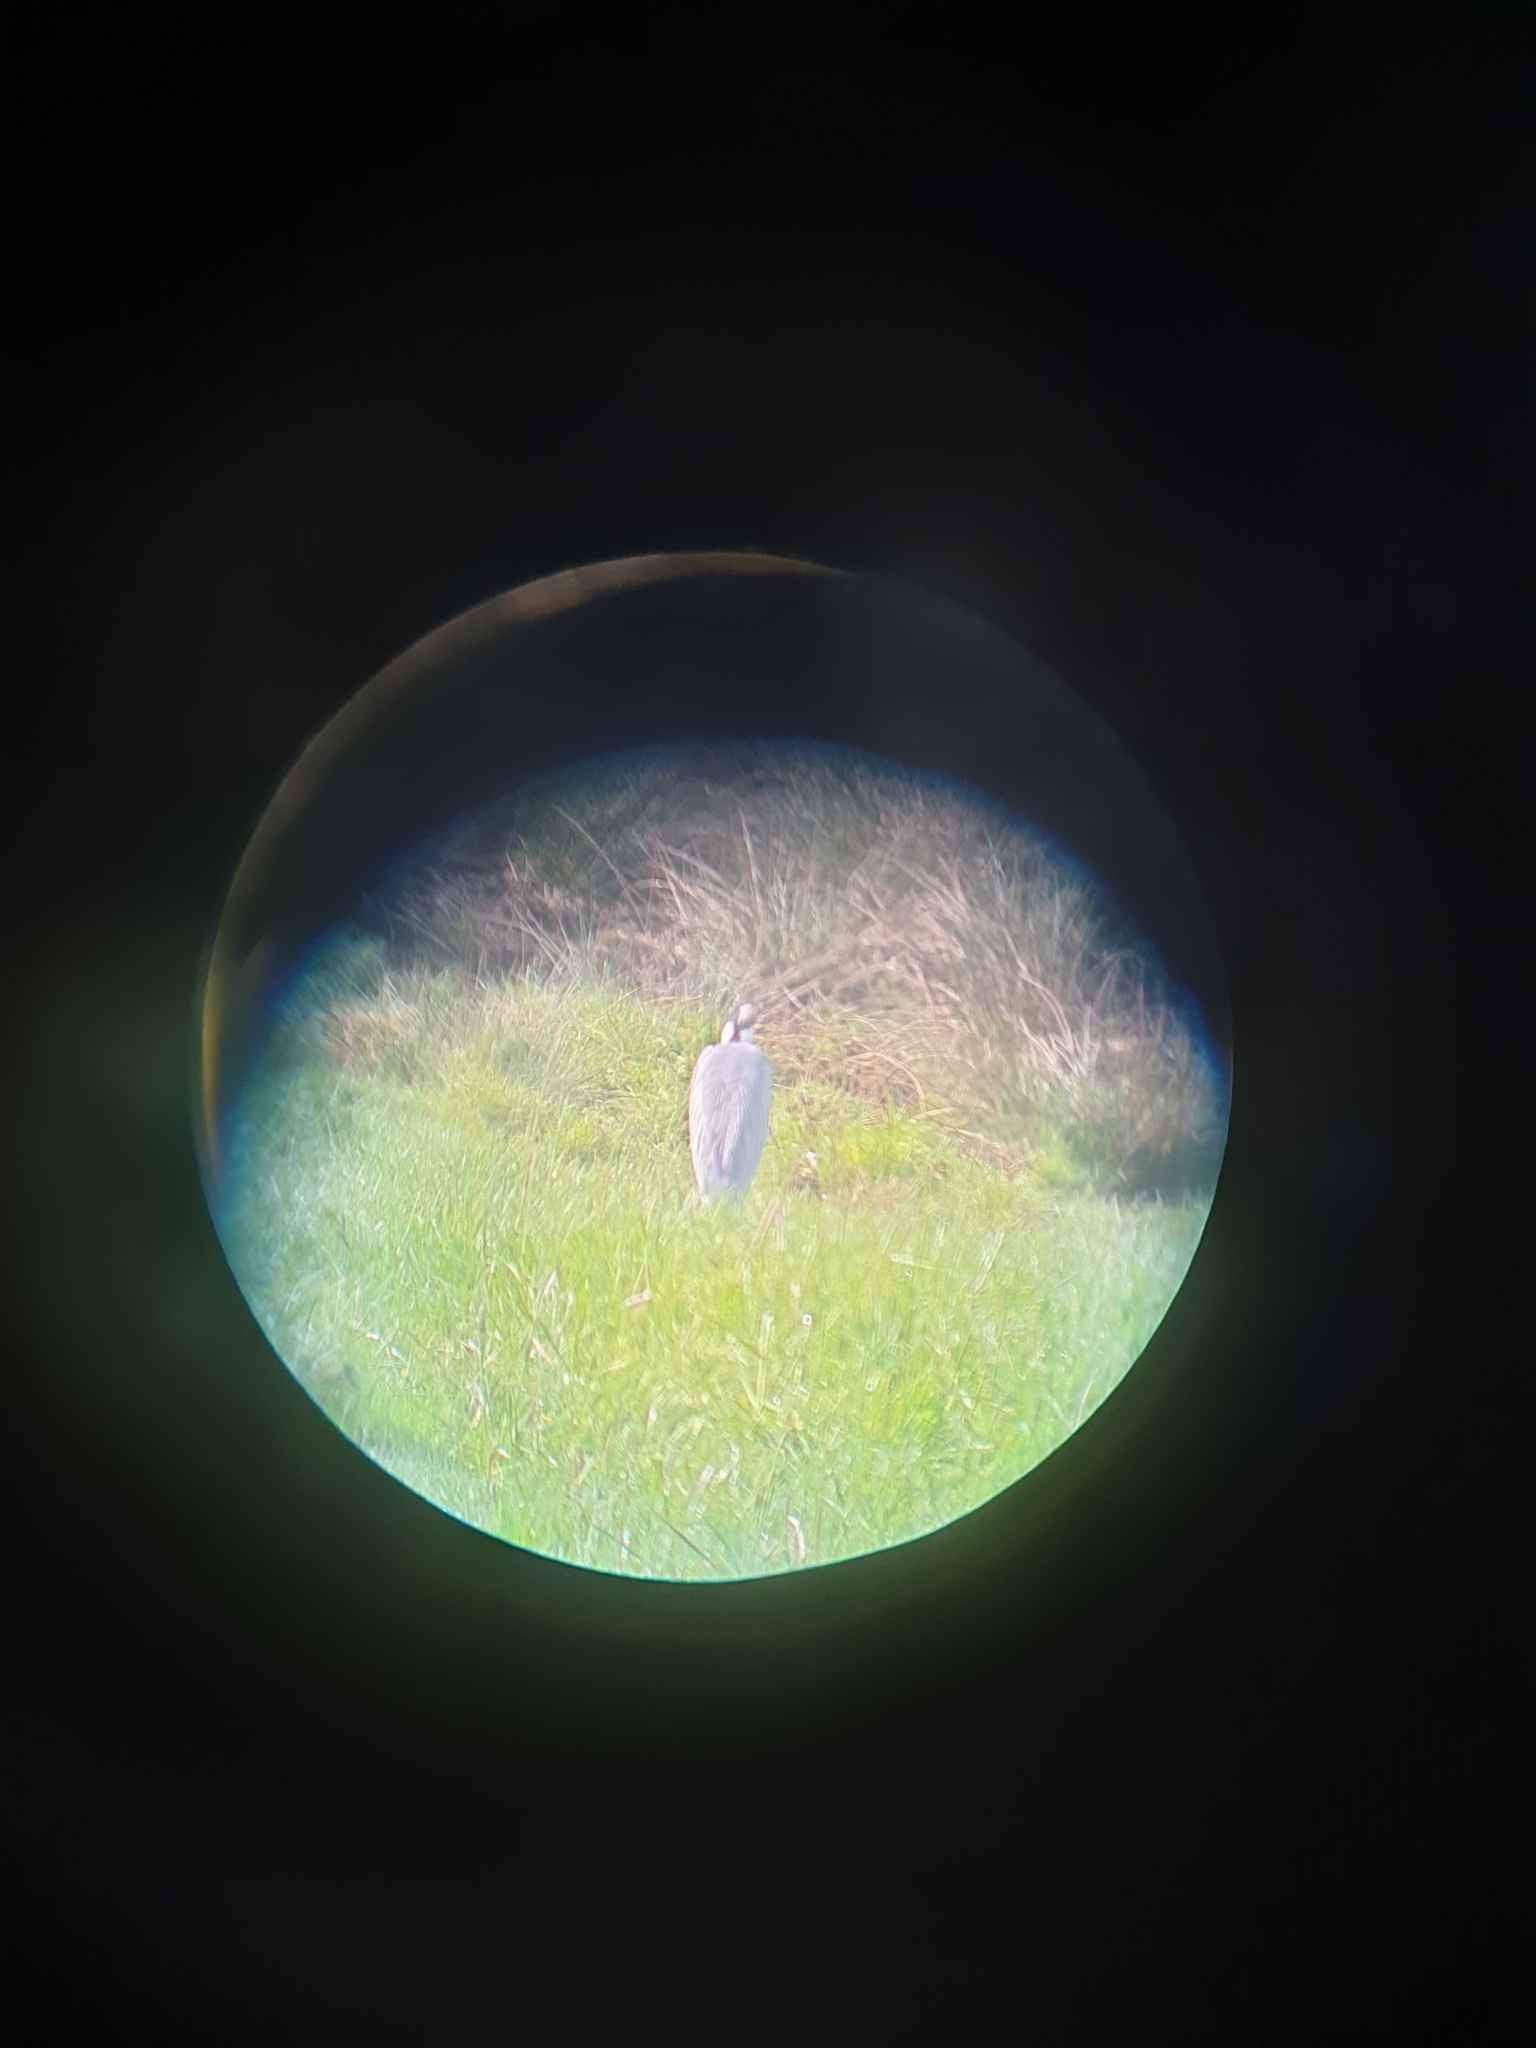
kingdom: Animalia
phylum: Chordata
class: Aves
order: Pelecaniformes
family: Ardeidae
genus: Ardea
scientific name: Ardea cinerea
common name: Grey heron
